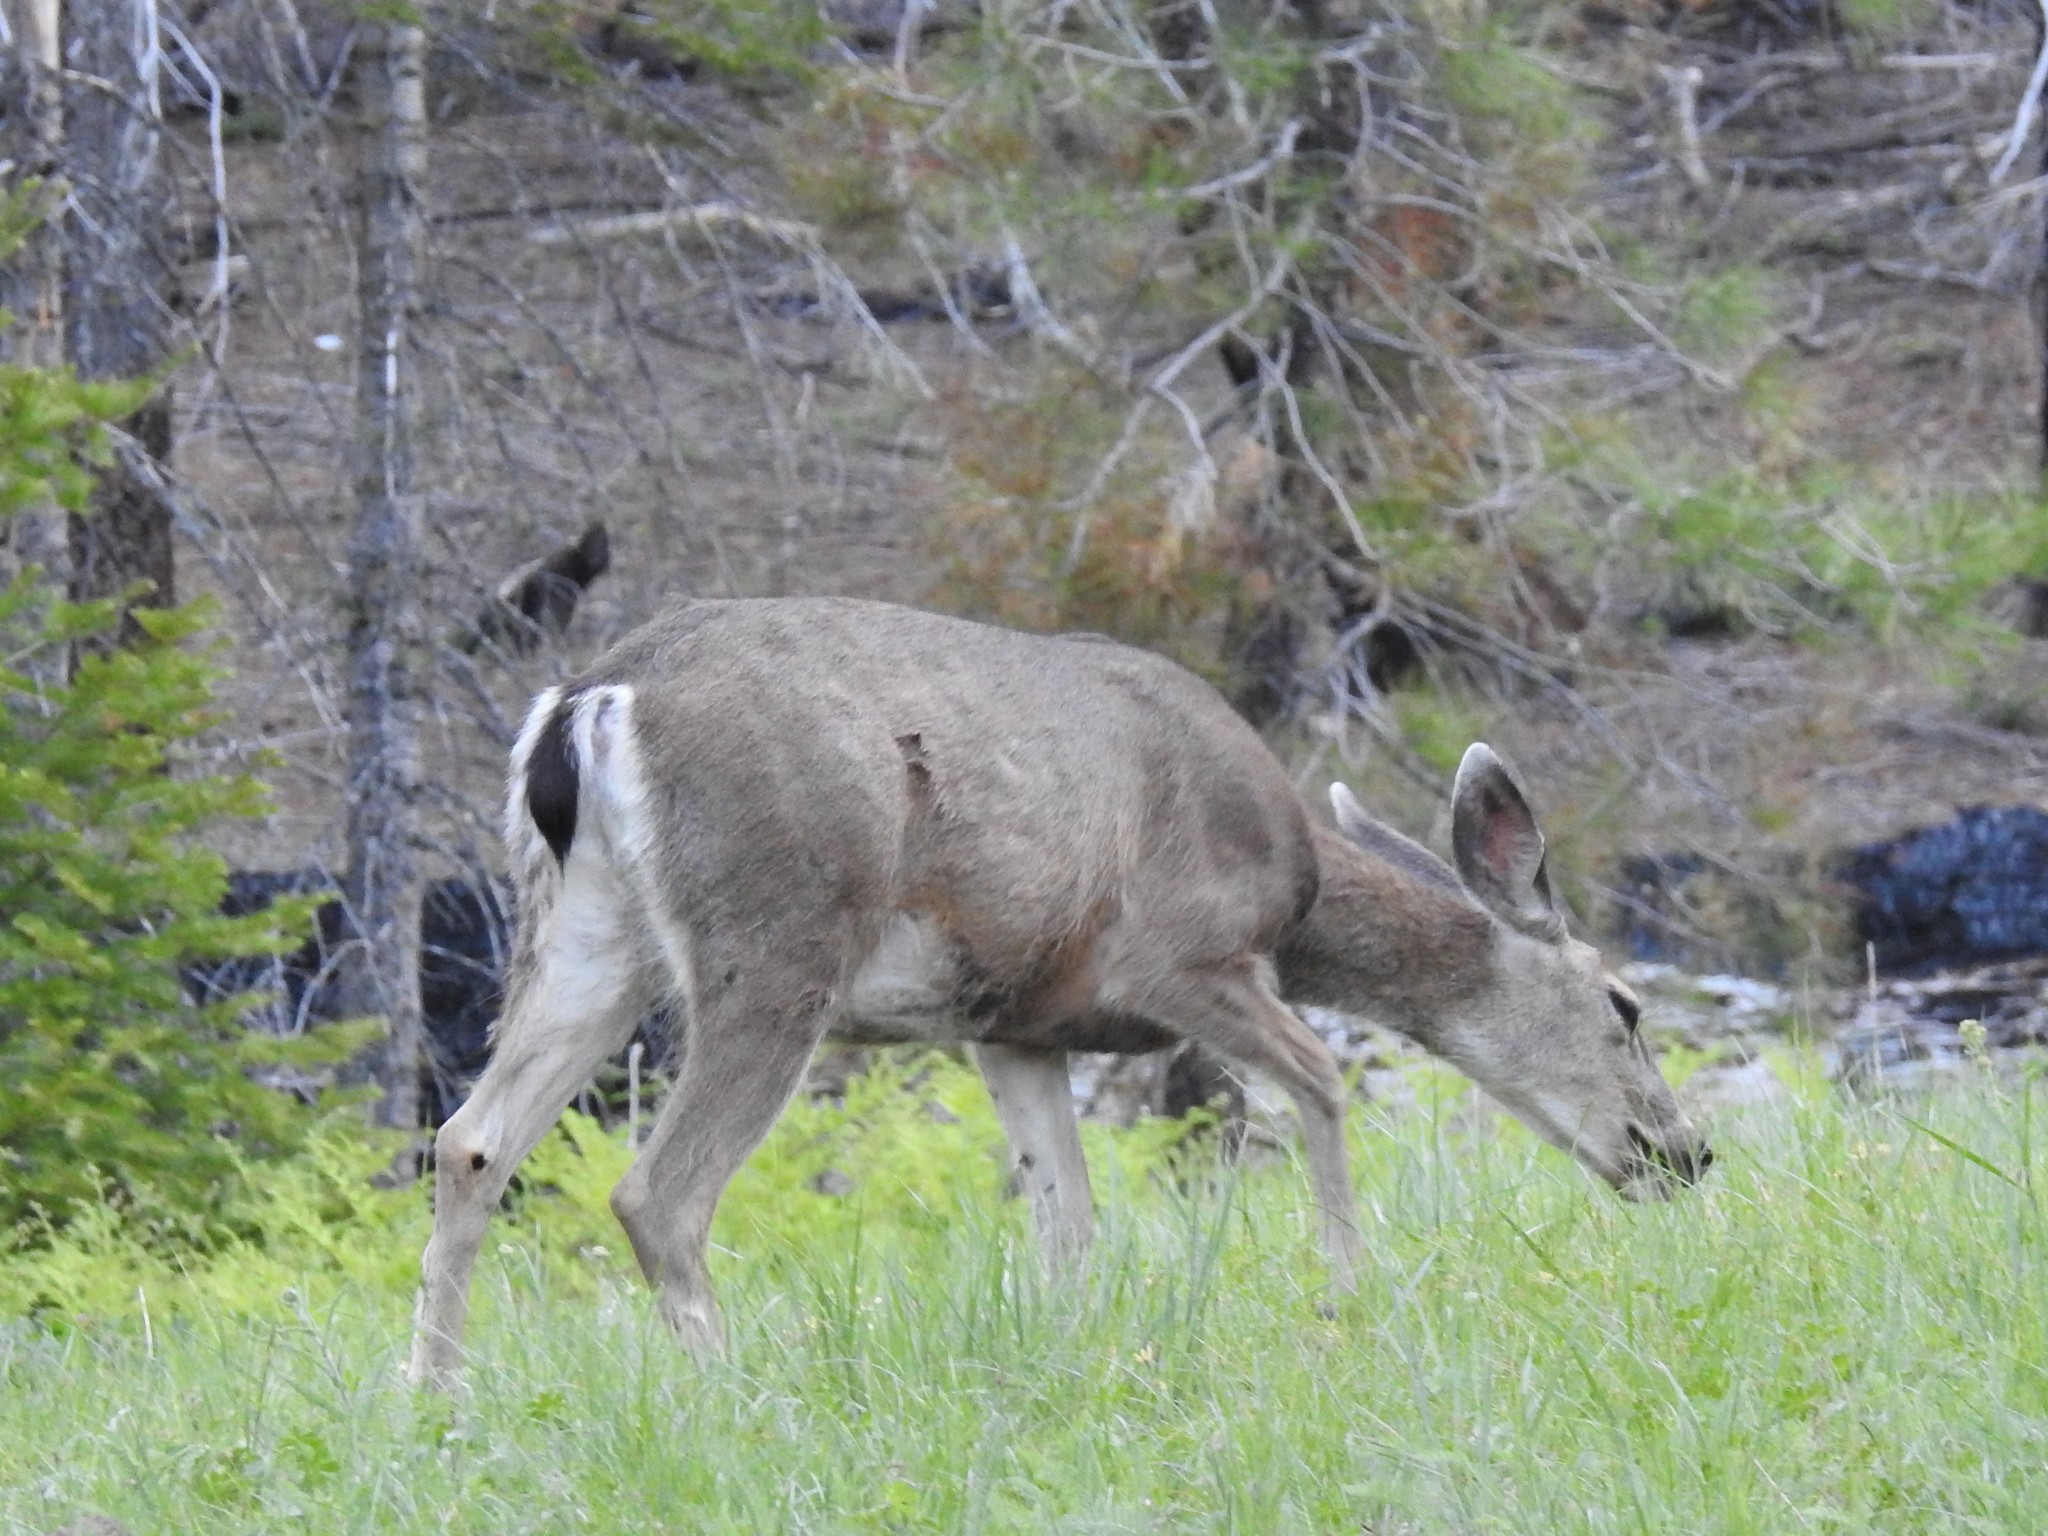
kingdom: Animalia
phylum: Chordata
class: Mammalia
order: Artiodactyla
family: Cervidae
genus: Odocoileus
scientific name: Odocoileus hemionus
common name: Mule deer
